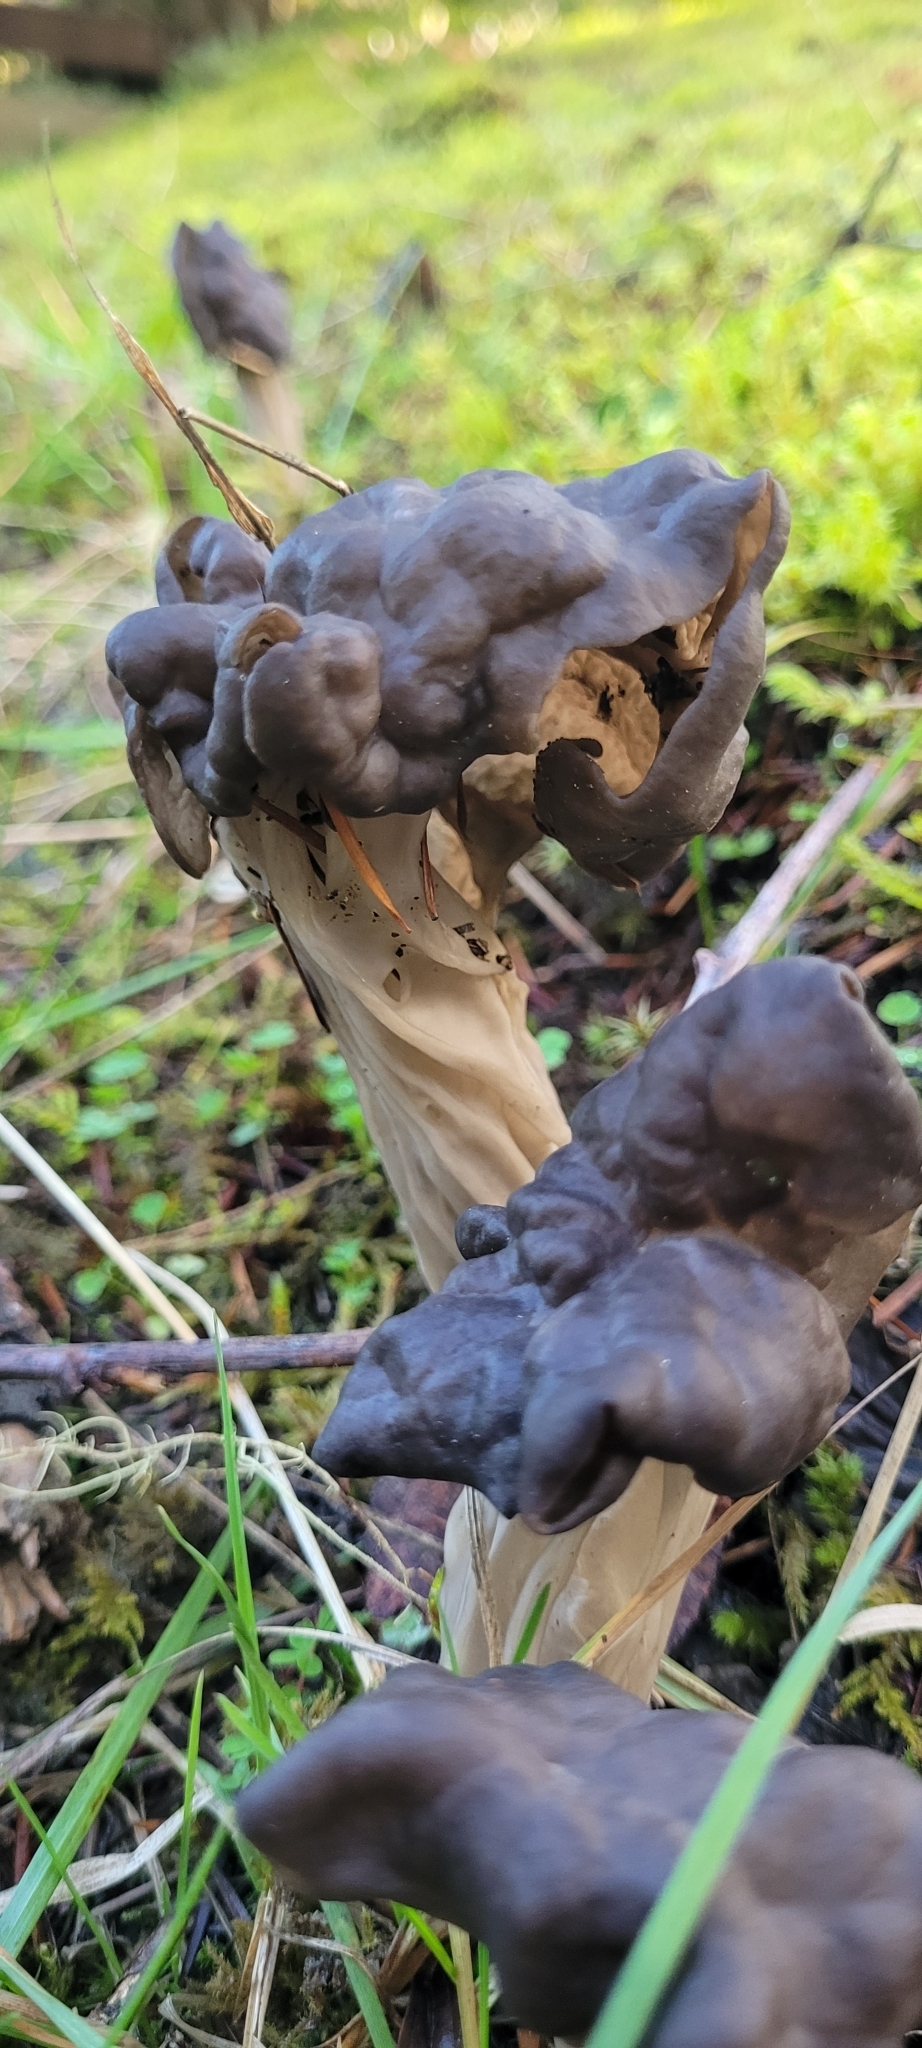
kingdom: Fungi
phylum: Ascomycota
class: Pezizomycetes
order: Pezizales
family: Helvellaceae
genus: Helvella
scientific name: Helvella vespertina
